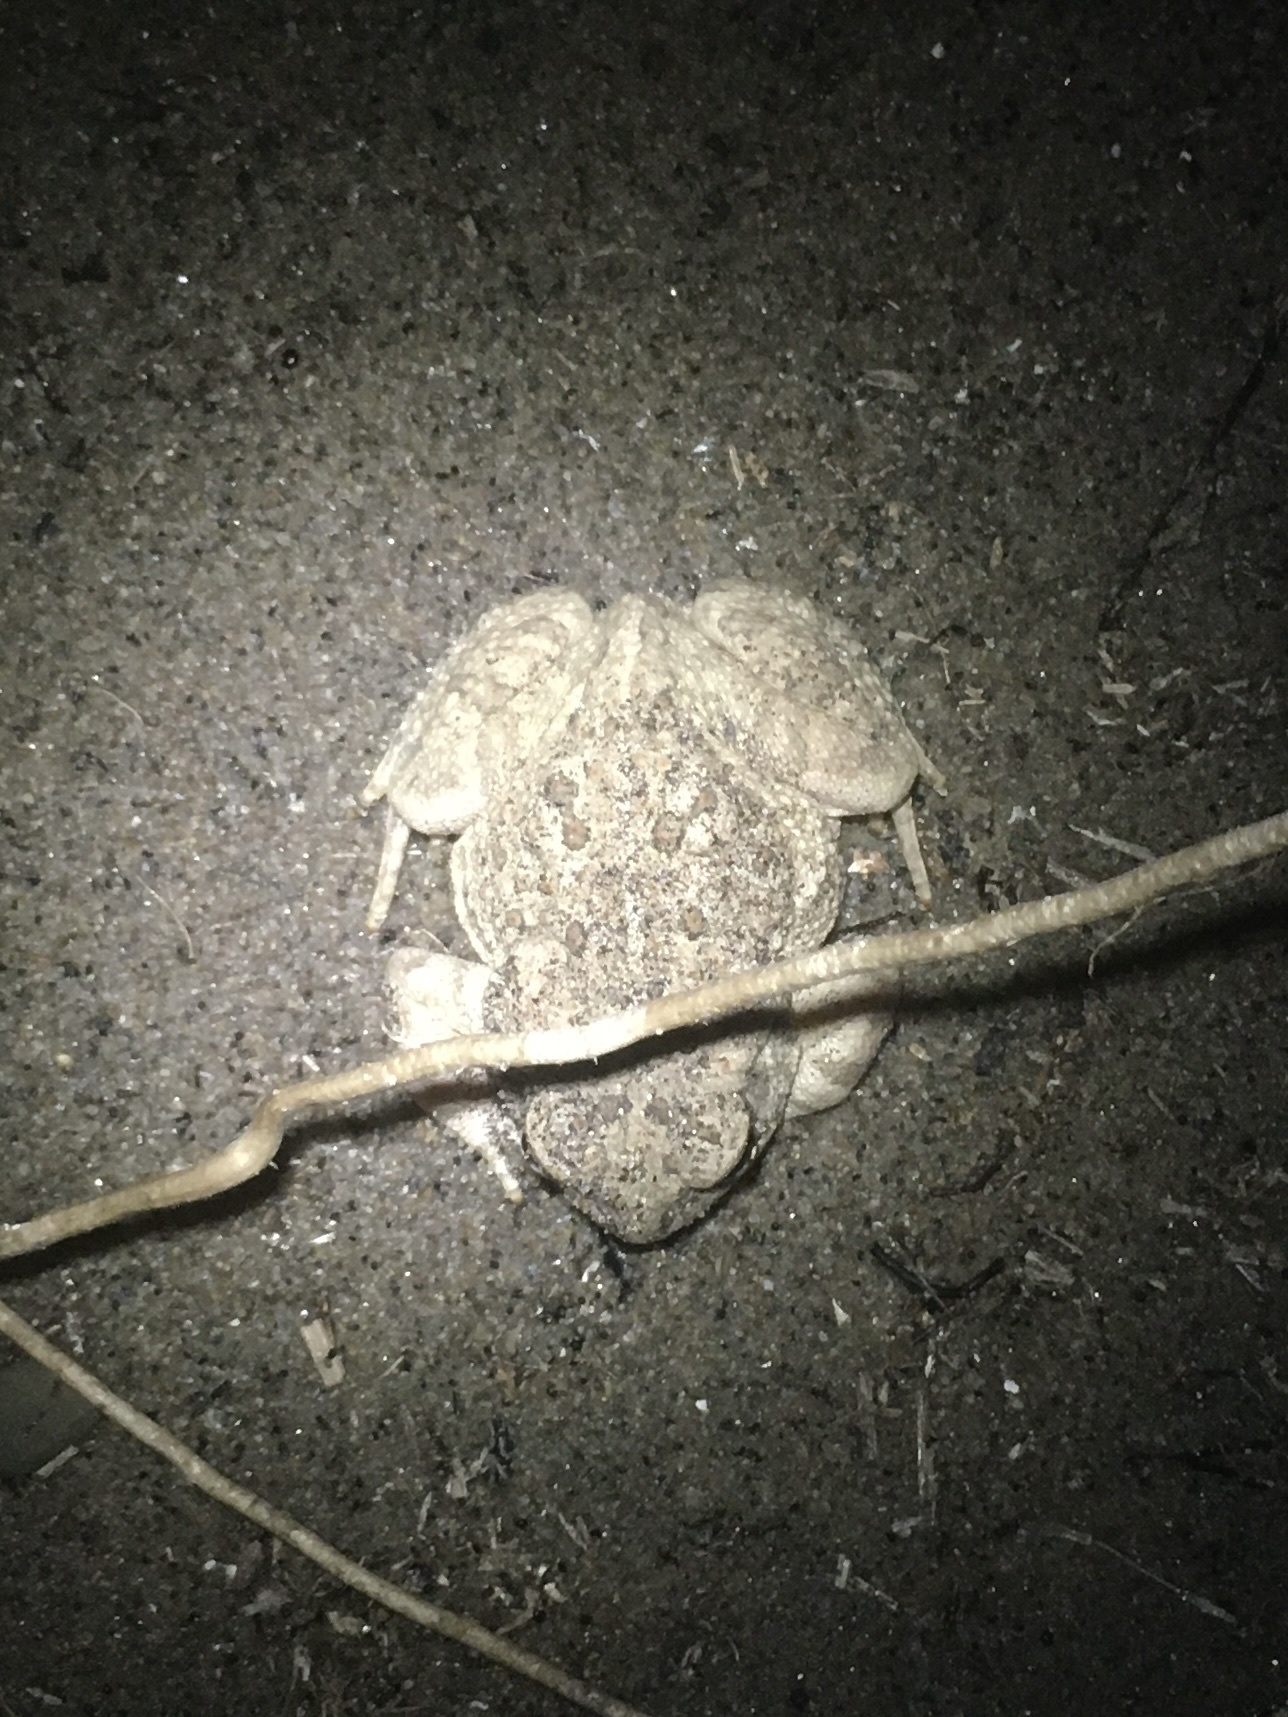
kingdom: Animalia
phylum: Chordata
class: Amphibia
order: Anura
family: Bufonidae
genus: Anaxyrus
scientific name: Anaxyrus fowleri
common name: Fowler's toad
